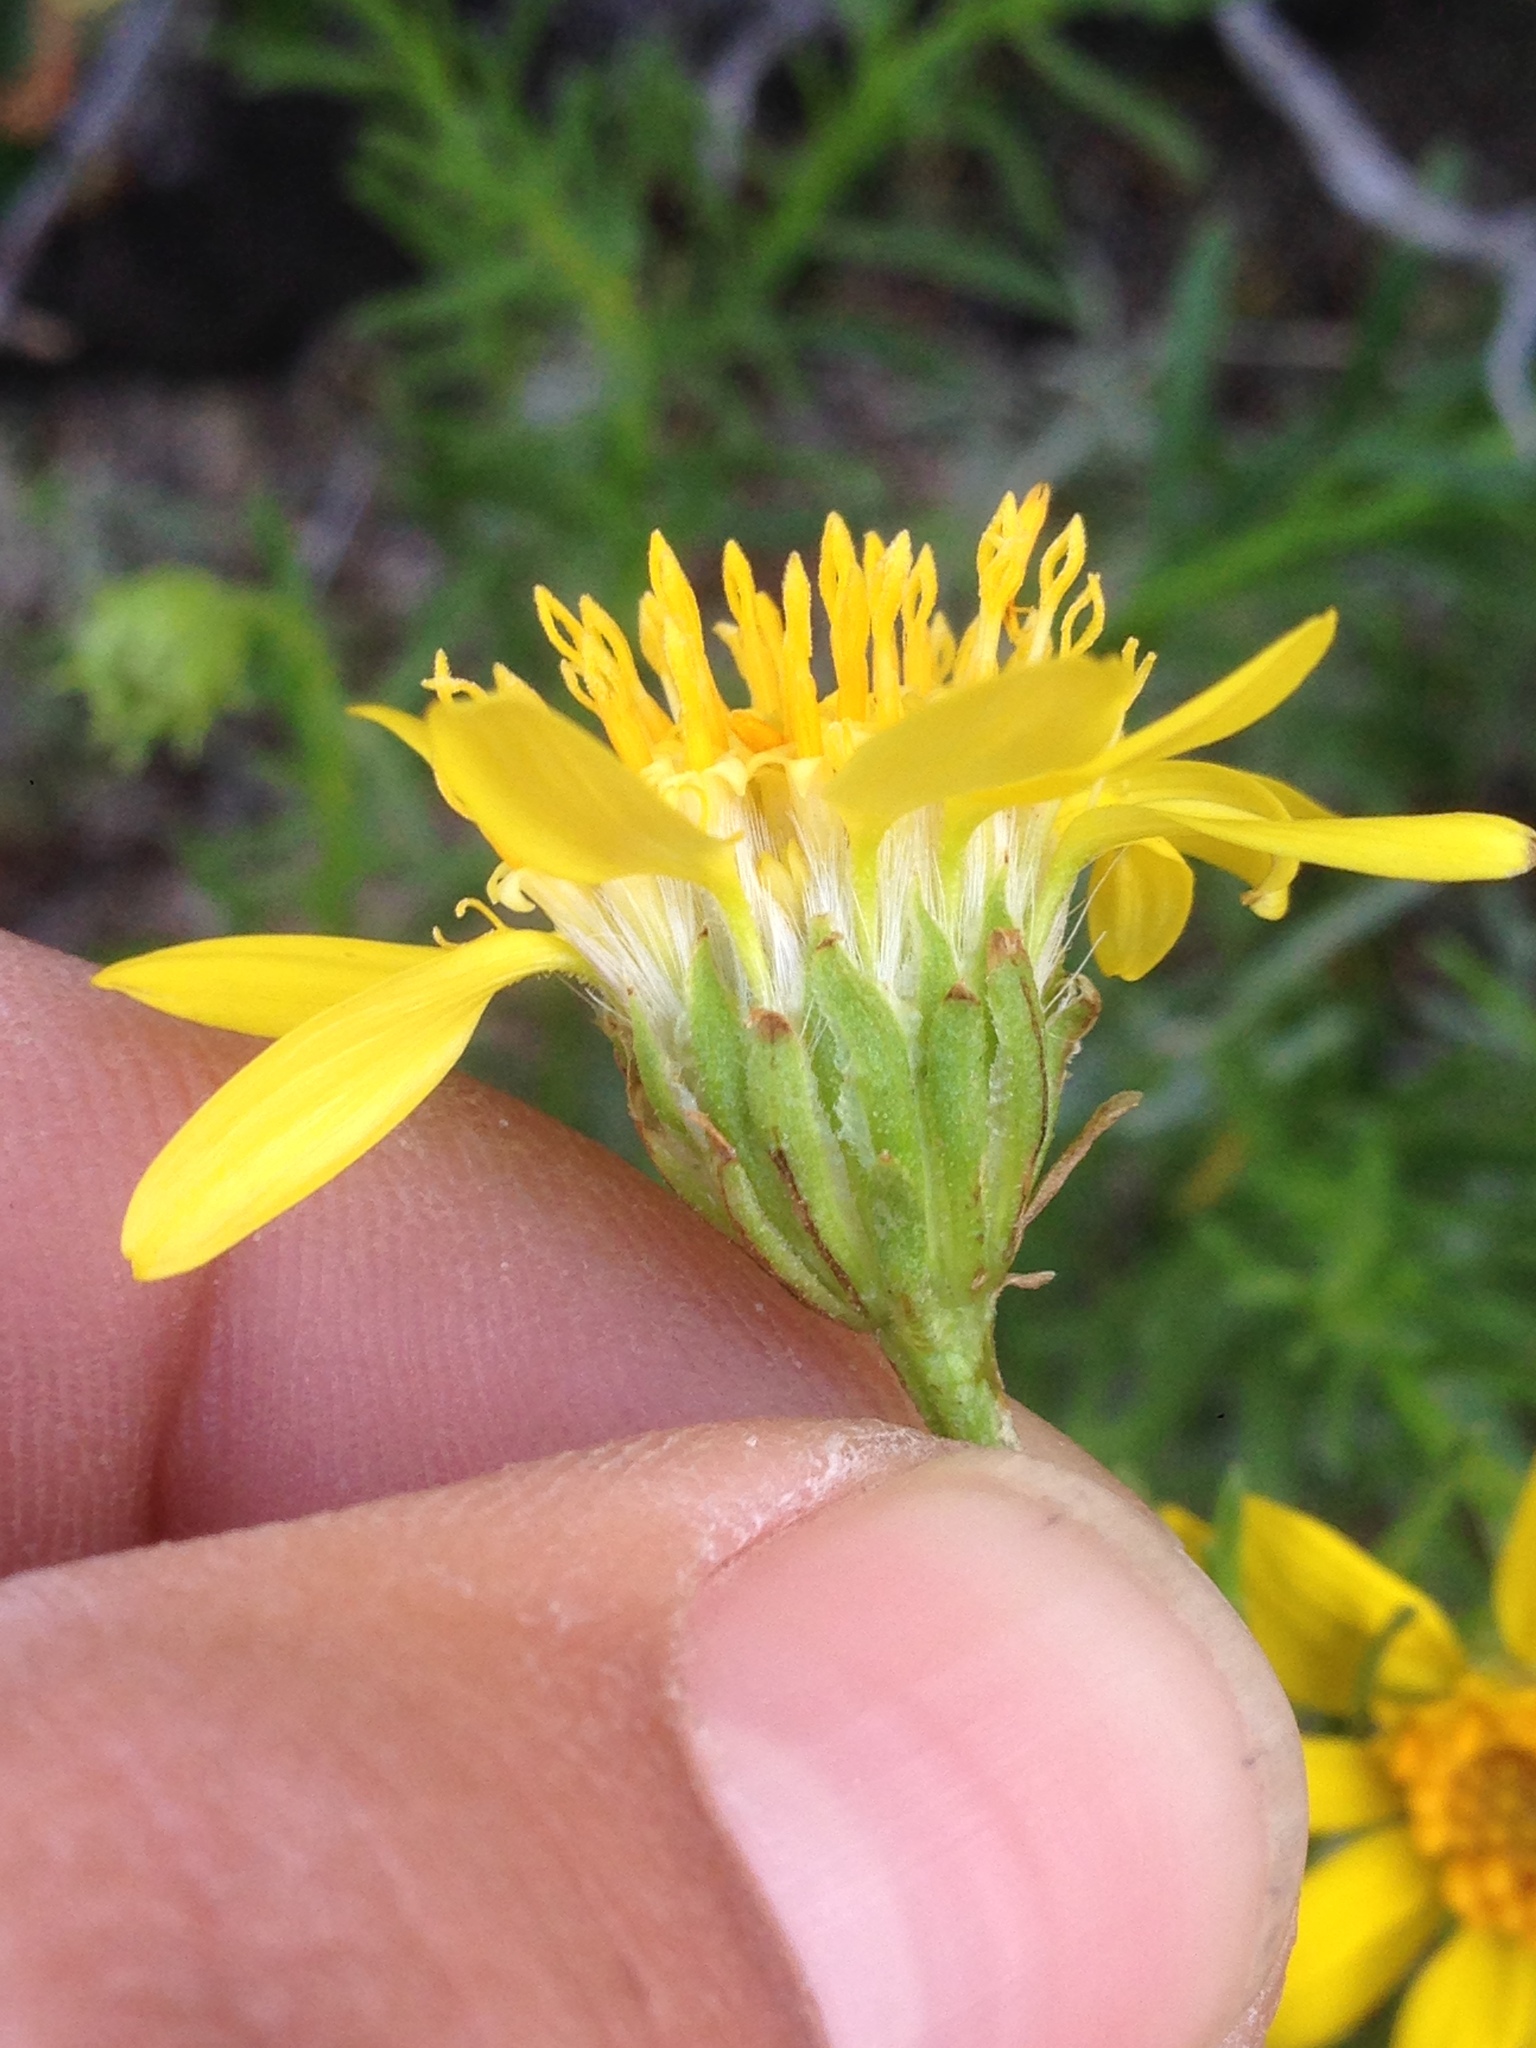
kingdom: Plantae
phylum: Tracheophyta
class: Magnoliopsida
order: Asterales
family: Asteraceae
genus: Ericameria
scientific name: Ericameria linearifolia
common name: Interior goldenbush
